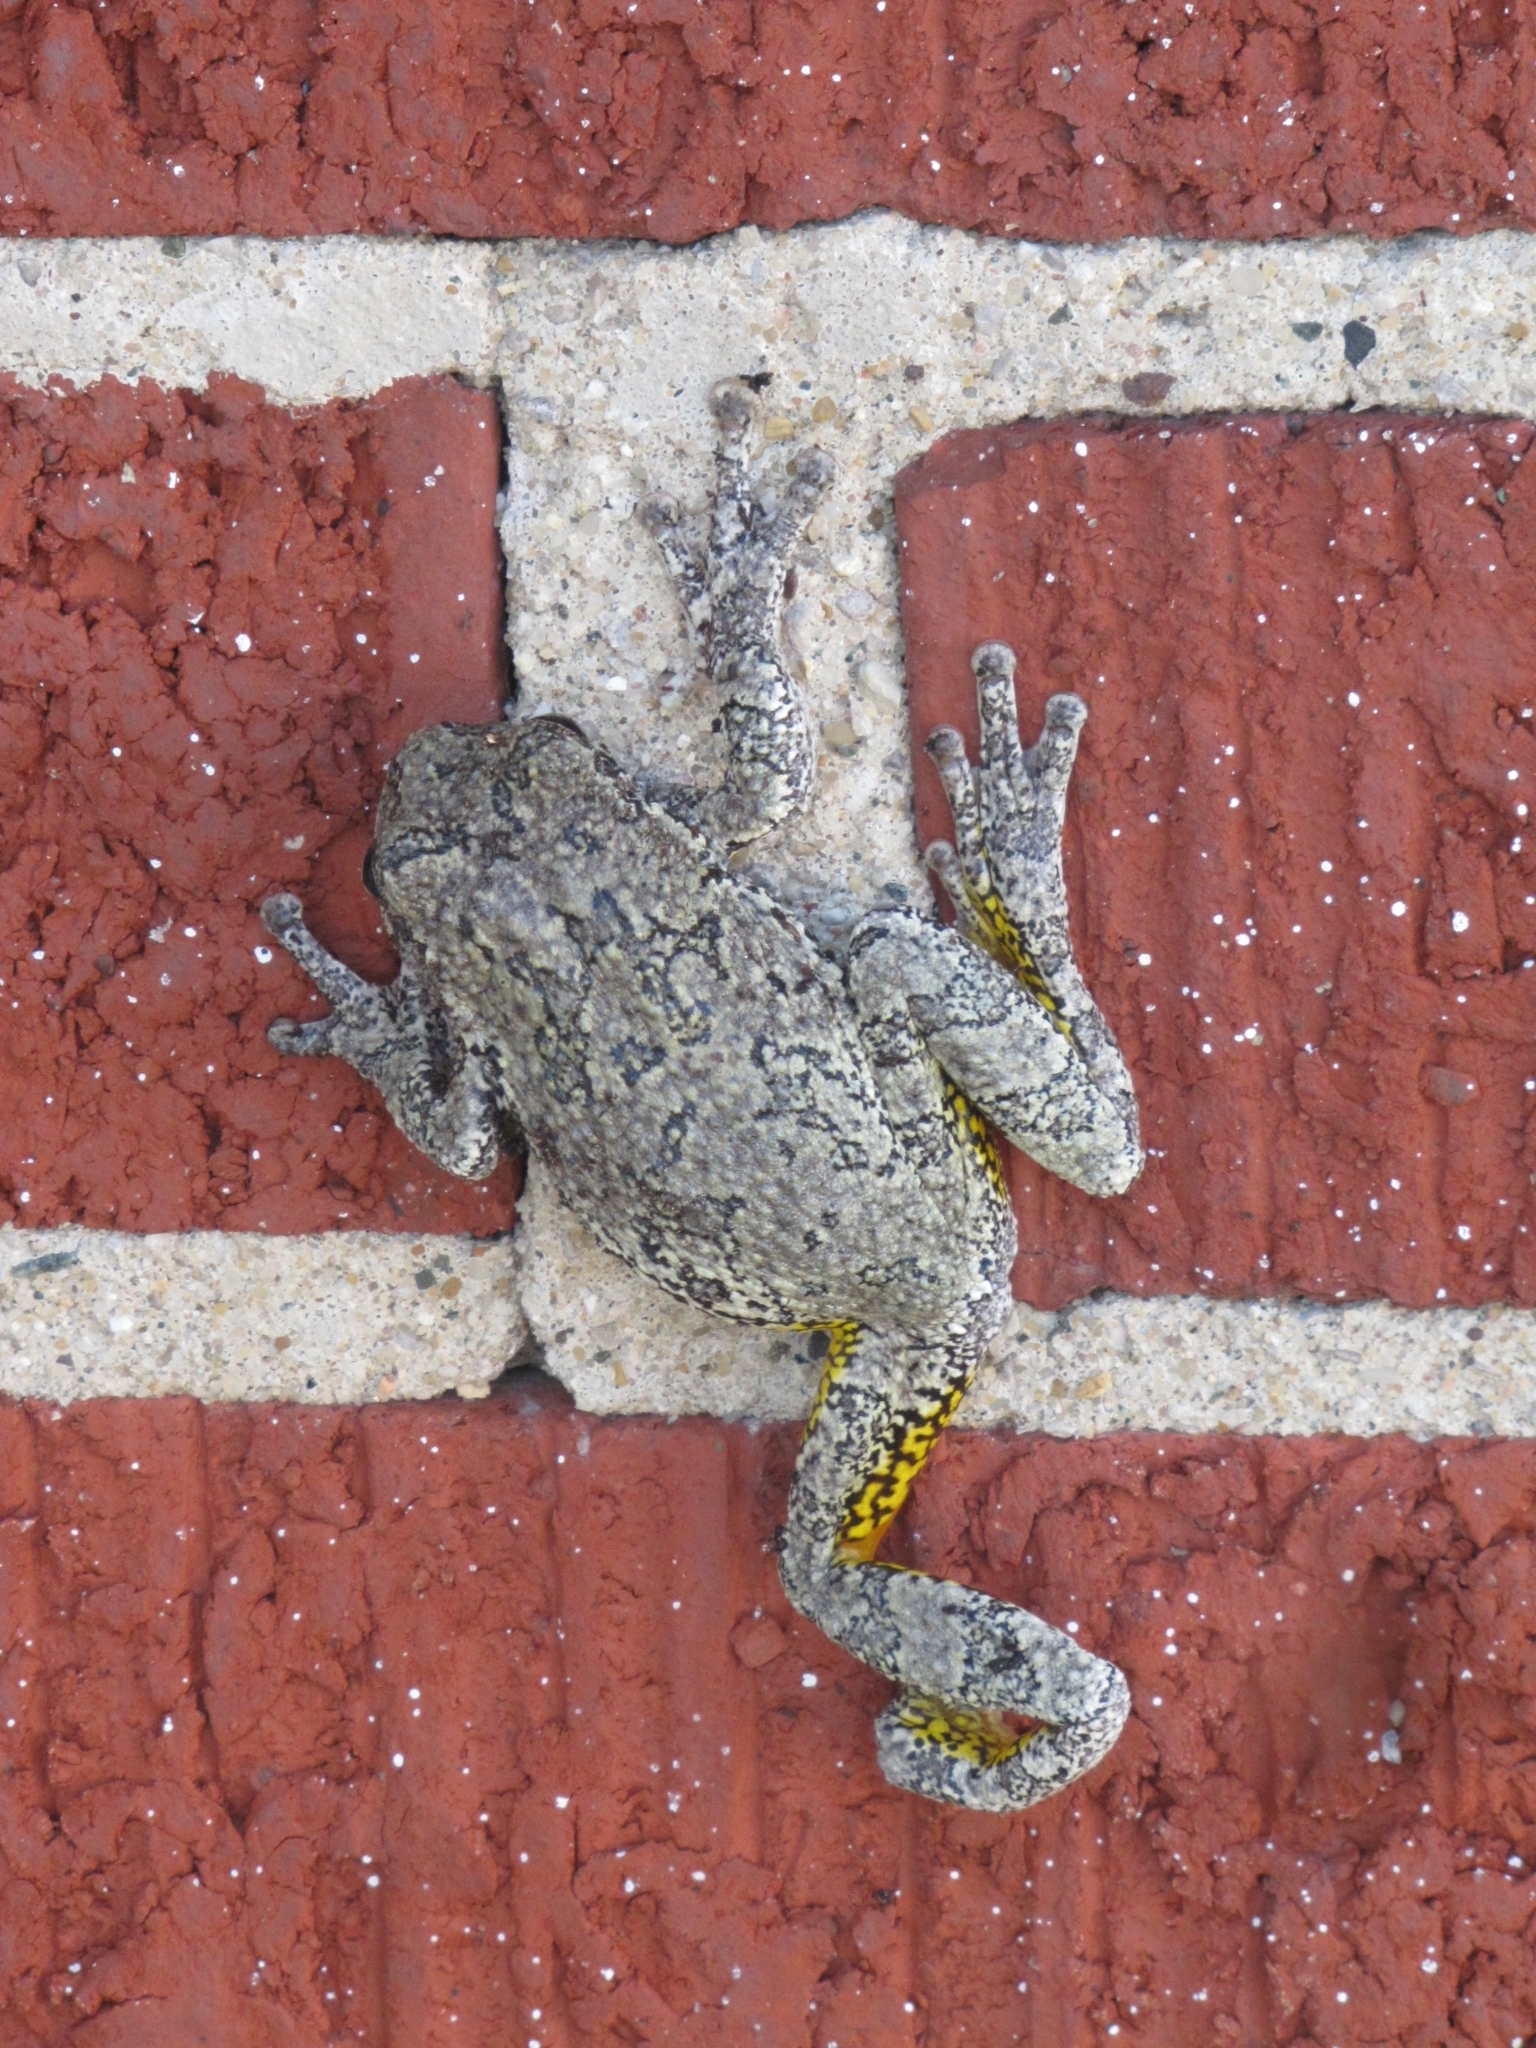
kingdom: Animalia
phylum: Chordata
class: Amphibia
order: Anura
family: Hylidae
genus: Dryophytes
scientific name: Dryophytes versicolor
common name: Gray treefrog
